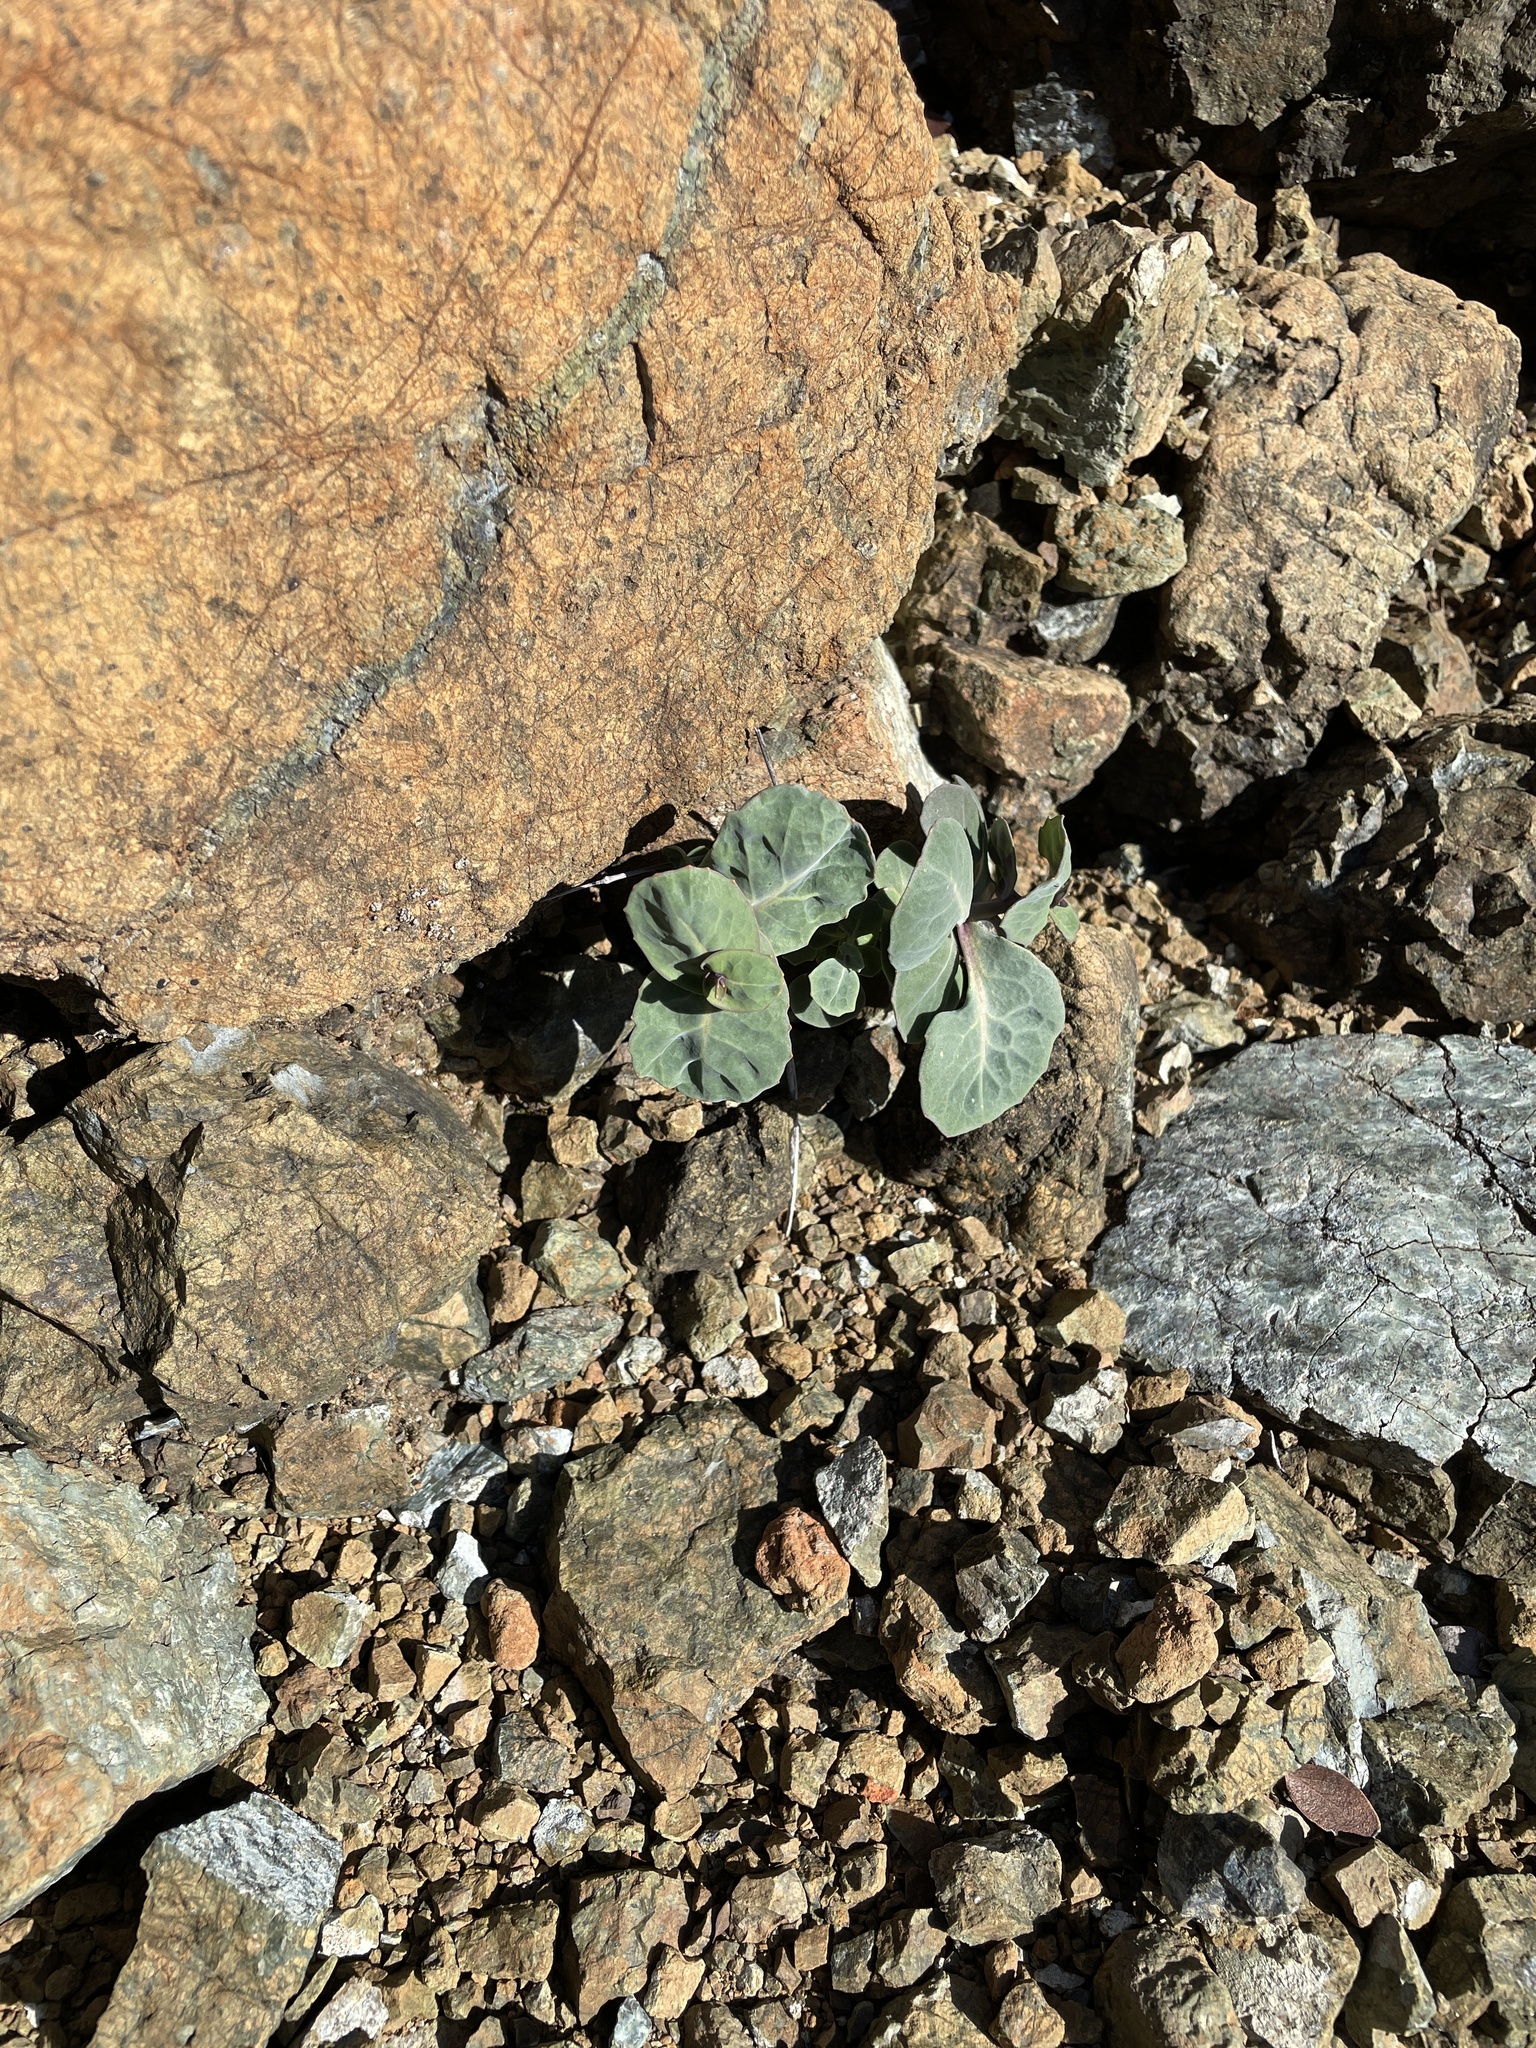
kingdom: Plantae
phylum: Tracheophyta
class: Magnoliopsida
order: Brassicales
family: Brassicaceae
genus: Streptanthus
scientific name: Streptanthus morrisonii
